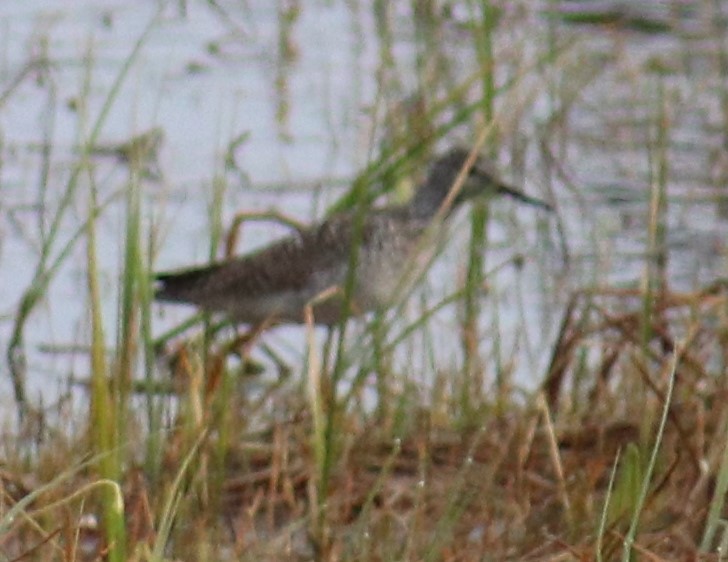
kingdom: Animalia
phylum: Chordata
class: Aves
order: Charadriiformes
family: Scolopacidae
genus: Tringa
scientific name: Tringa flavipes
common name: Lesser yellowlegs
